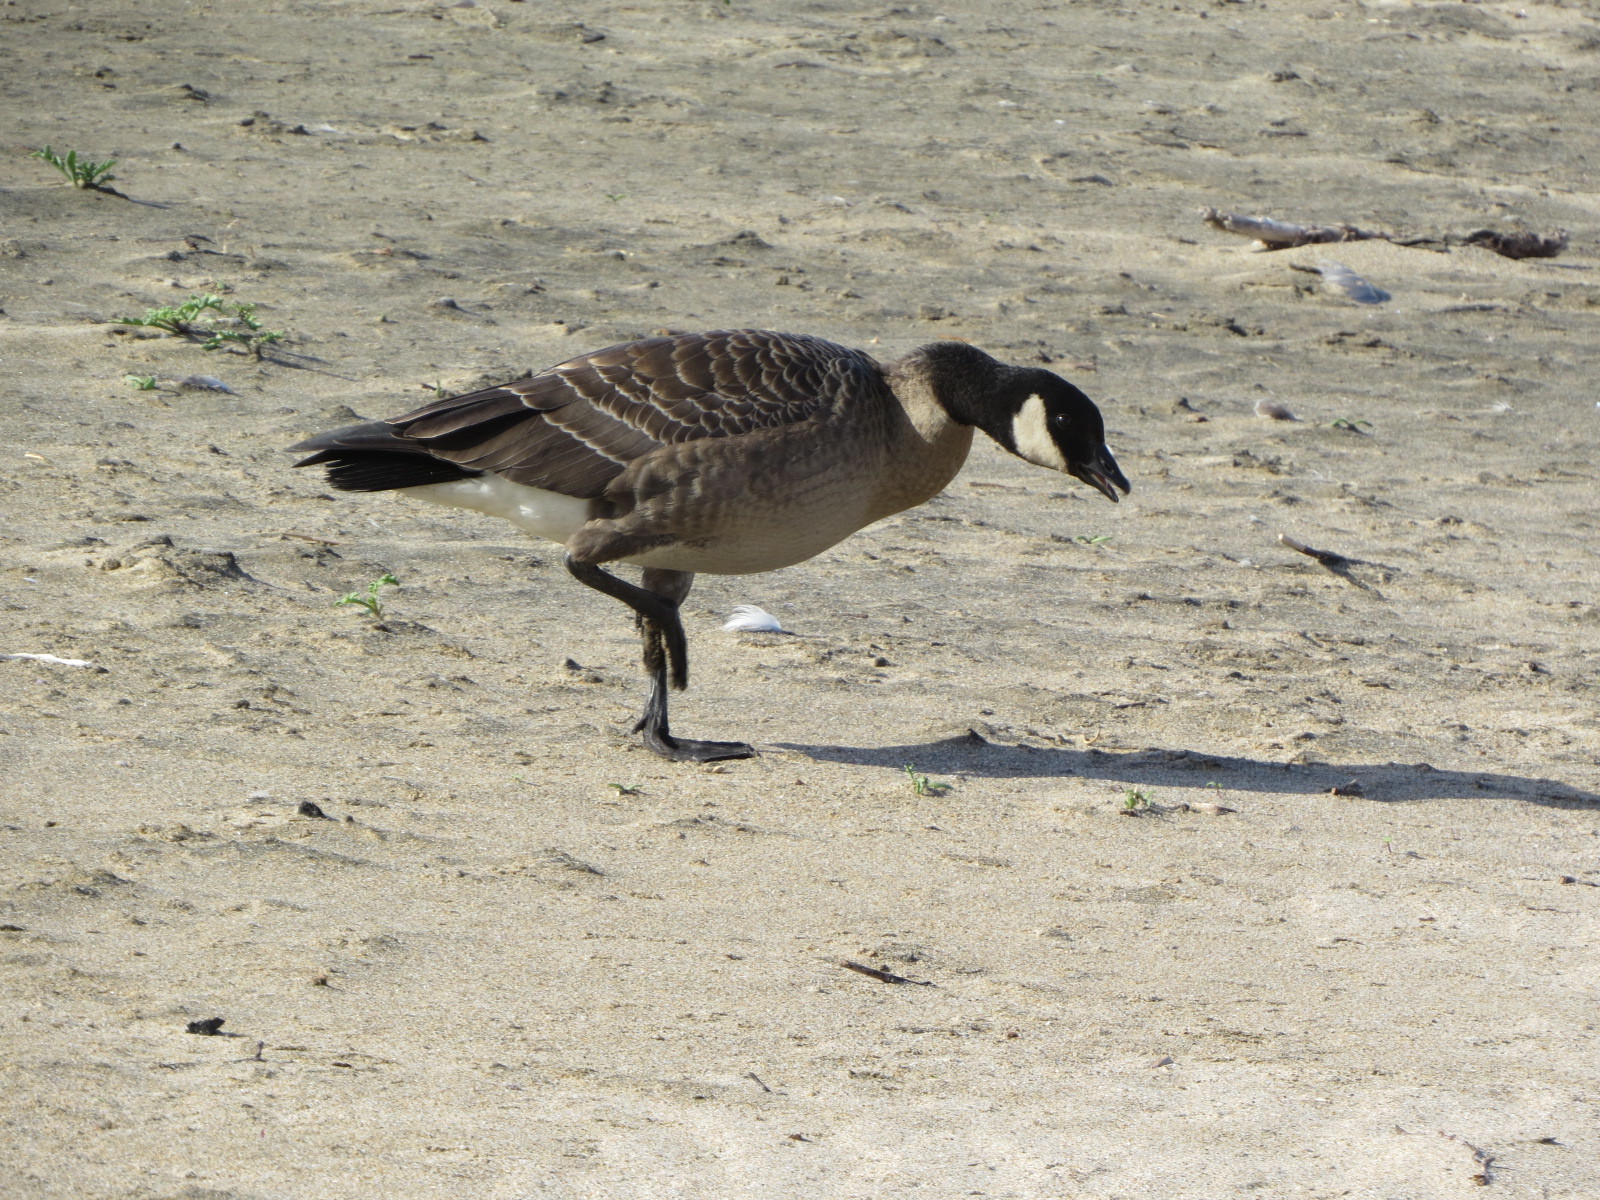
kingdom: Animalia
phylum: Chordata
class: Aves
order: Anseriformes
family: Anatidae
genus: Branta
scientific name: Branta hutchinsii
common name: Cackling goose
